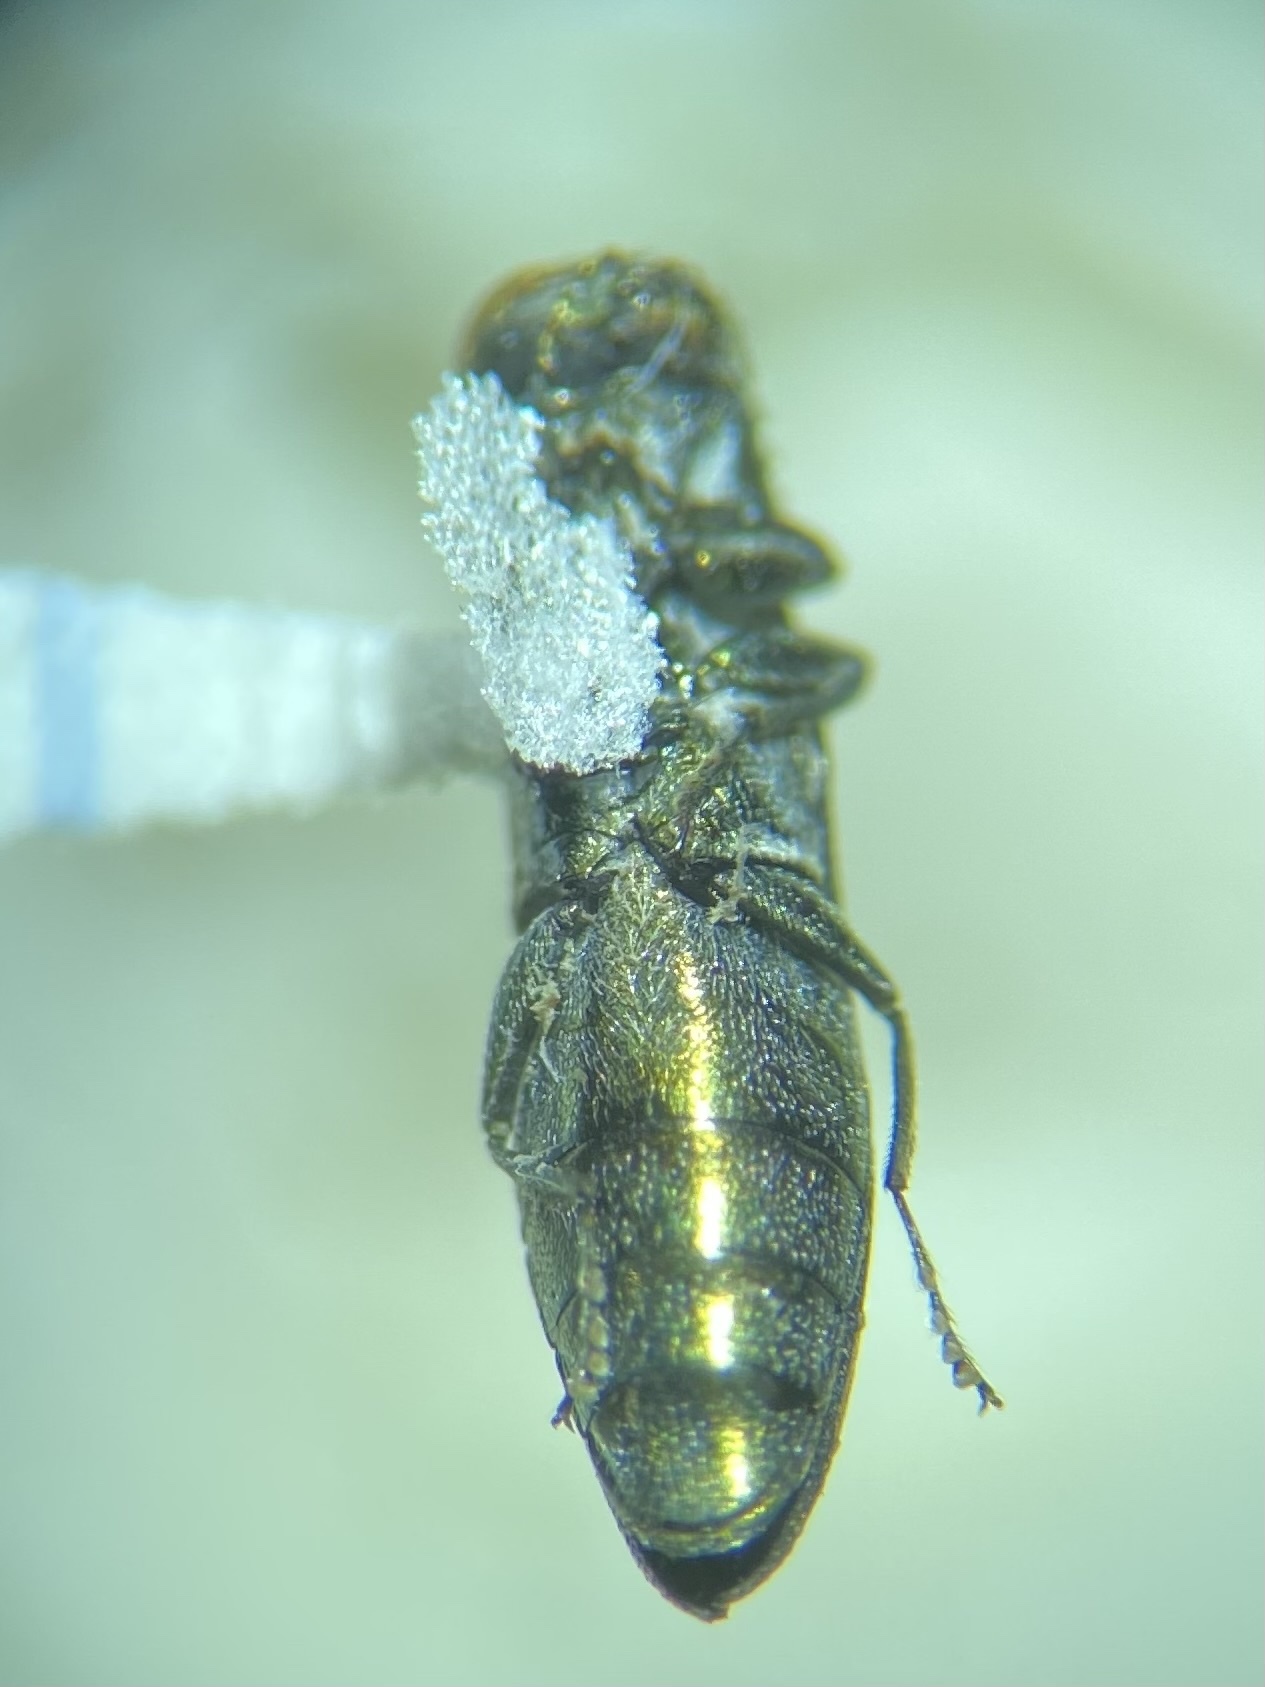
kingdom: Animalia
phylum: Arthropoda
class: Insecta
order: Coleoptera
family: Buprestidae
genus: Agrilus
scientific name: Agrilus celti
